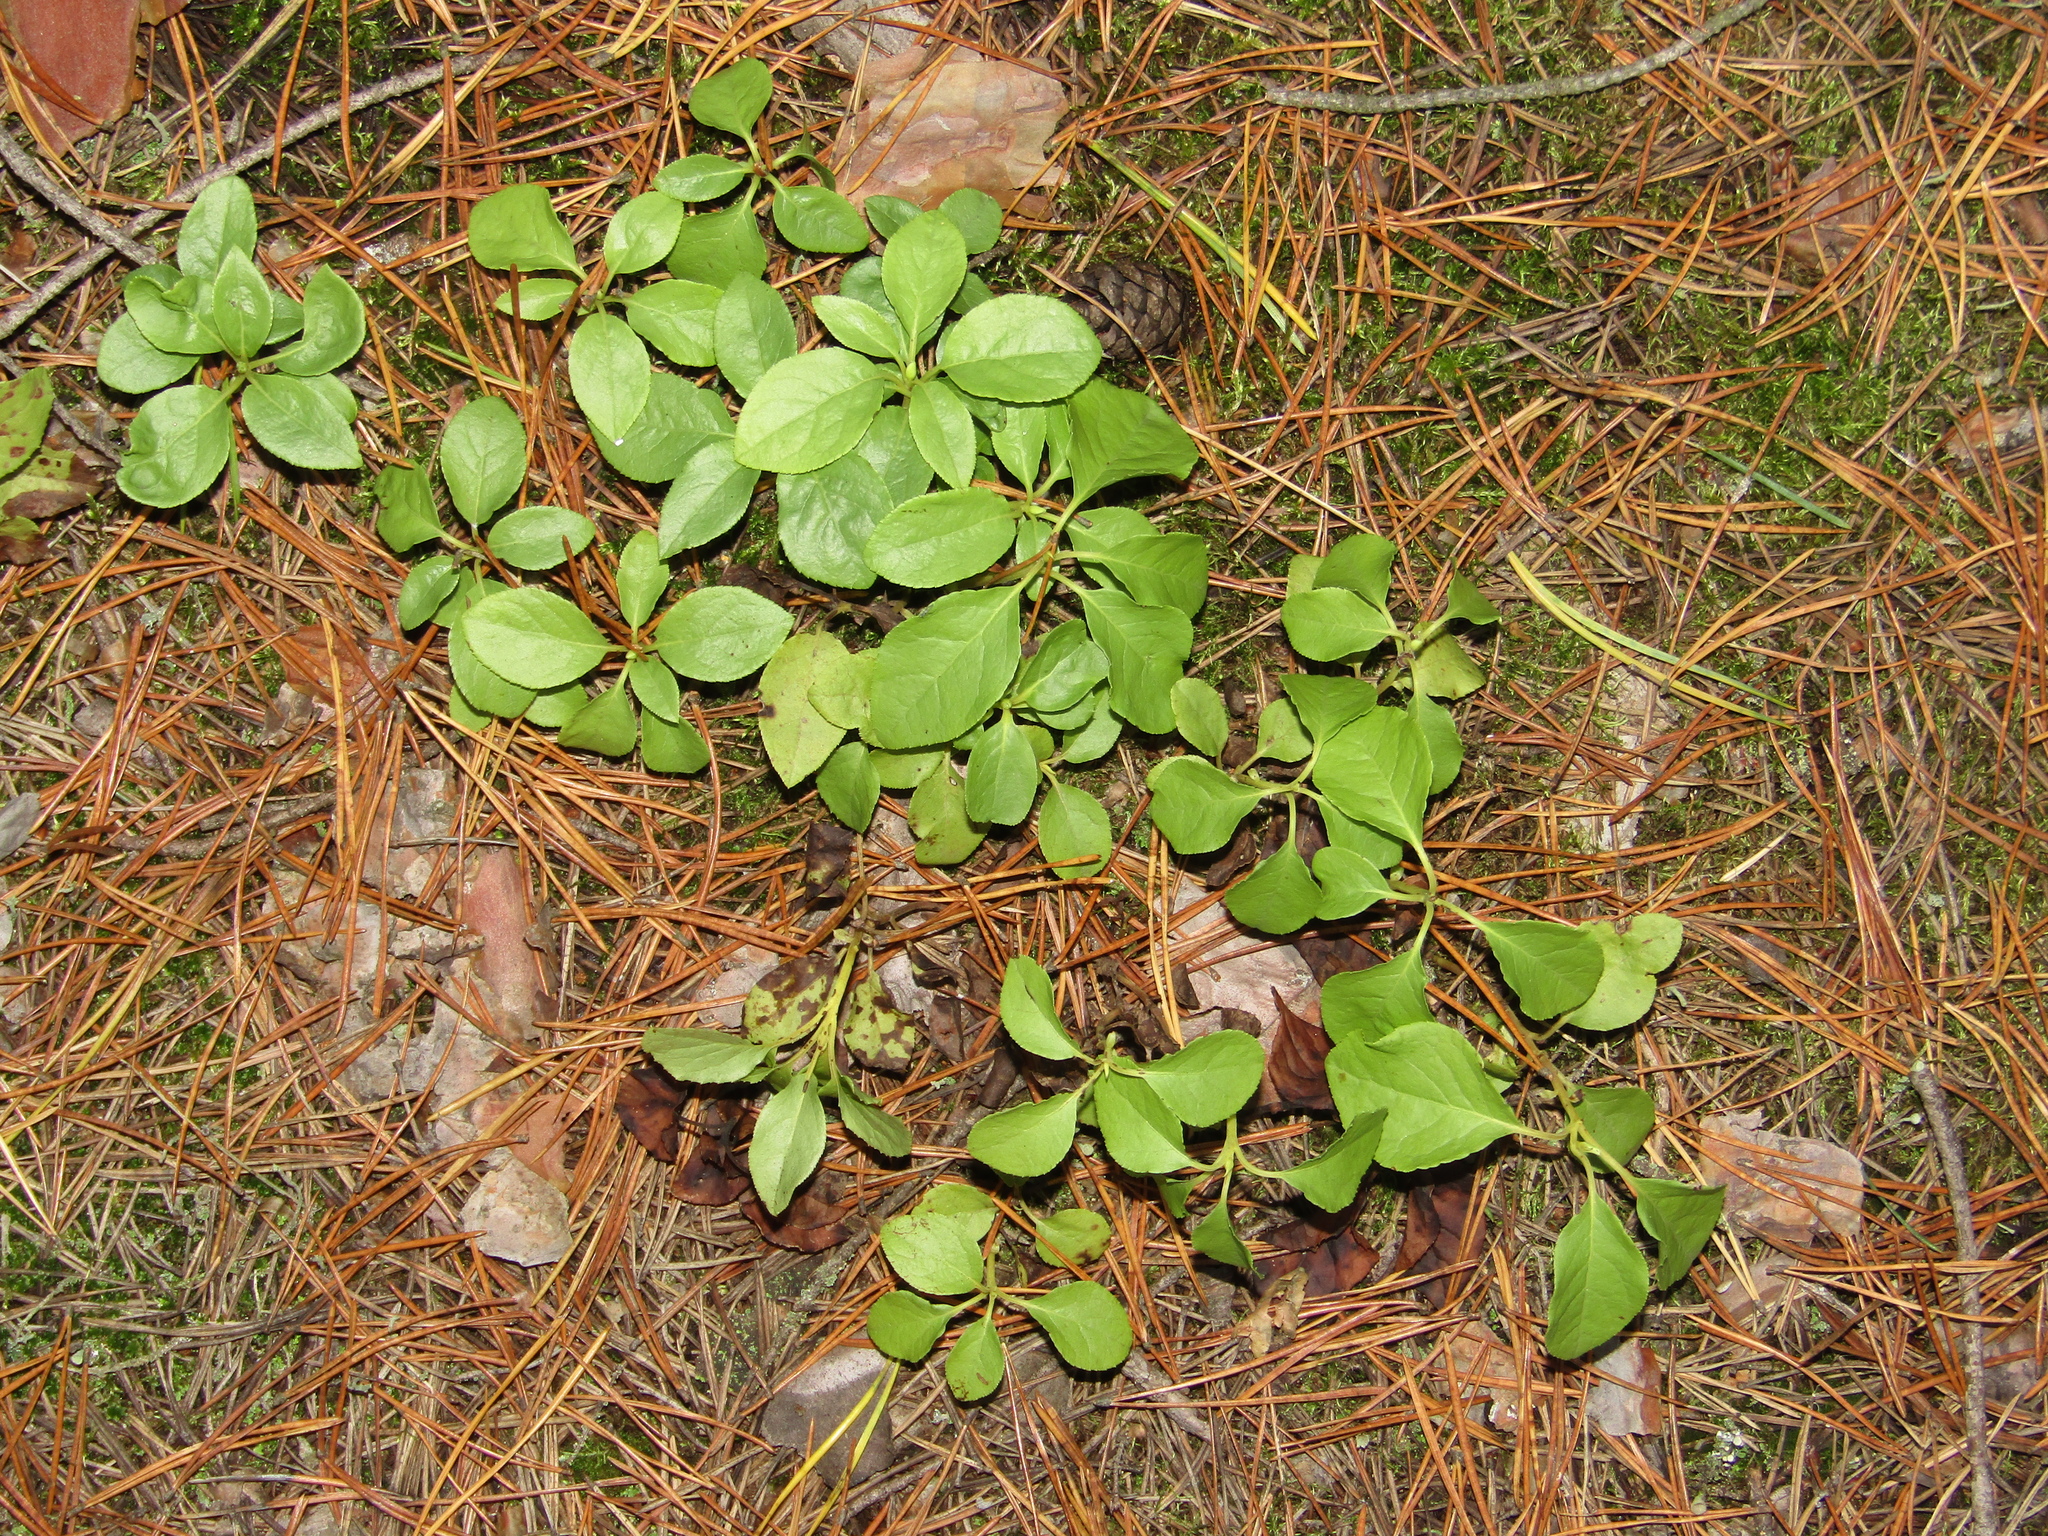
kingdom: Plantae
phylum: Tracheophyta
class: Magnoliopsida
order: Ericales
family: Ericaceae
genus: Orthilia
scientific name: Orthilia secunda
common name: One-sided orthilia
